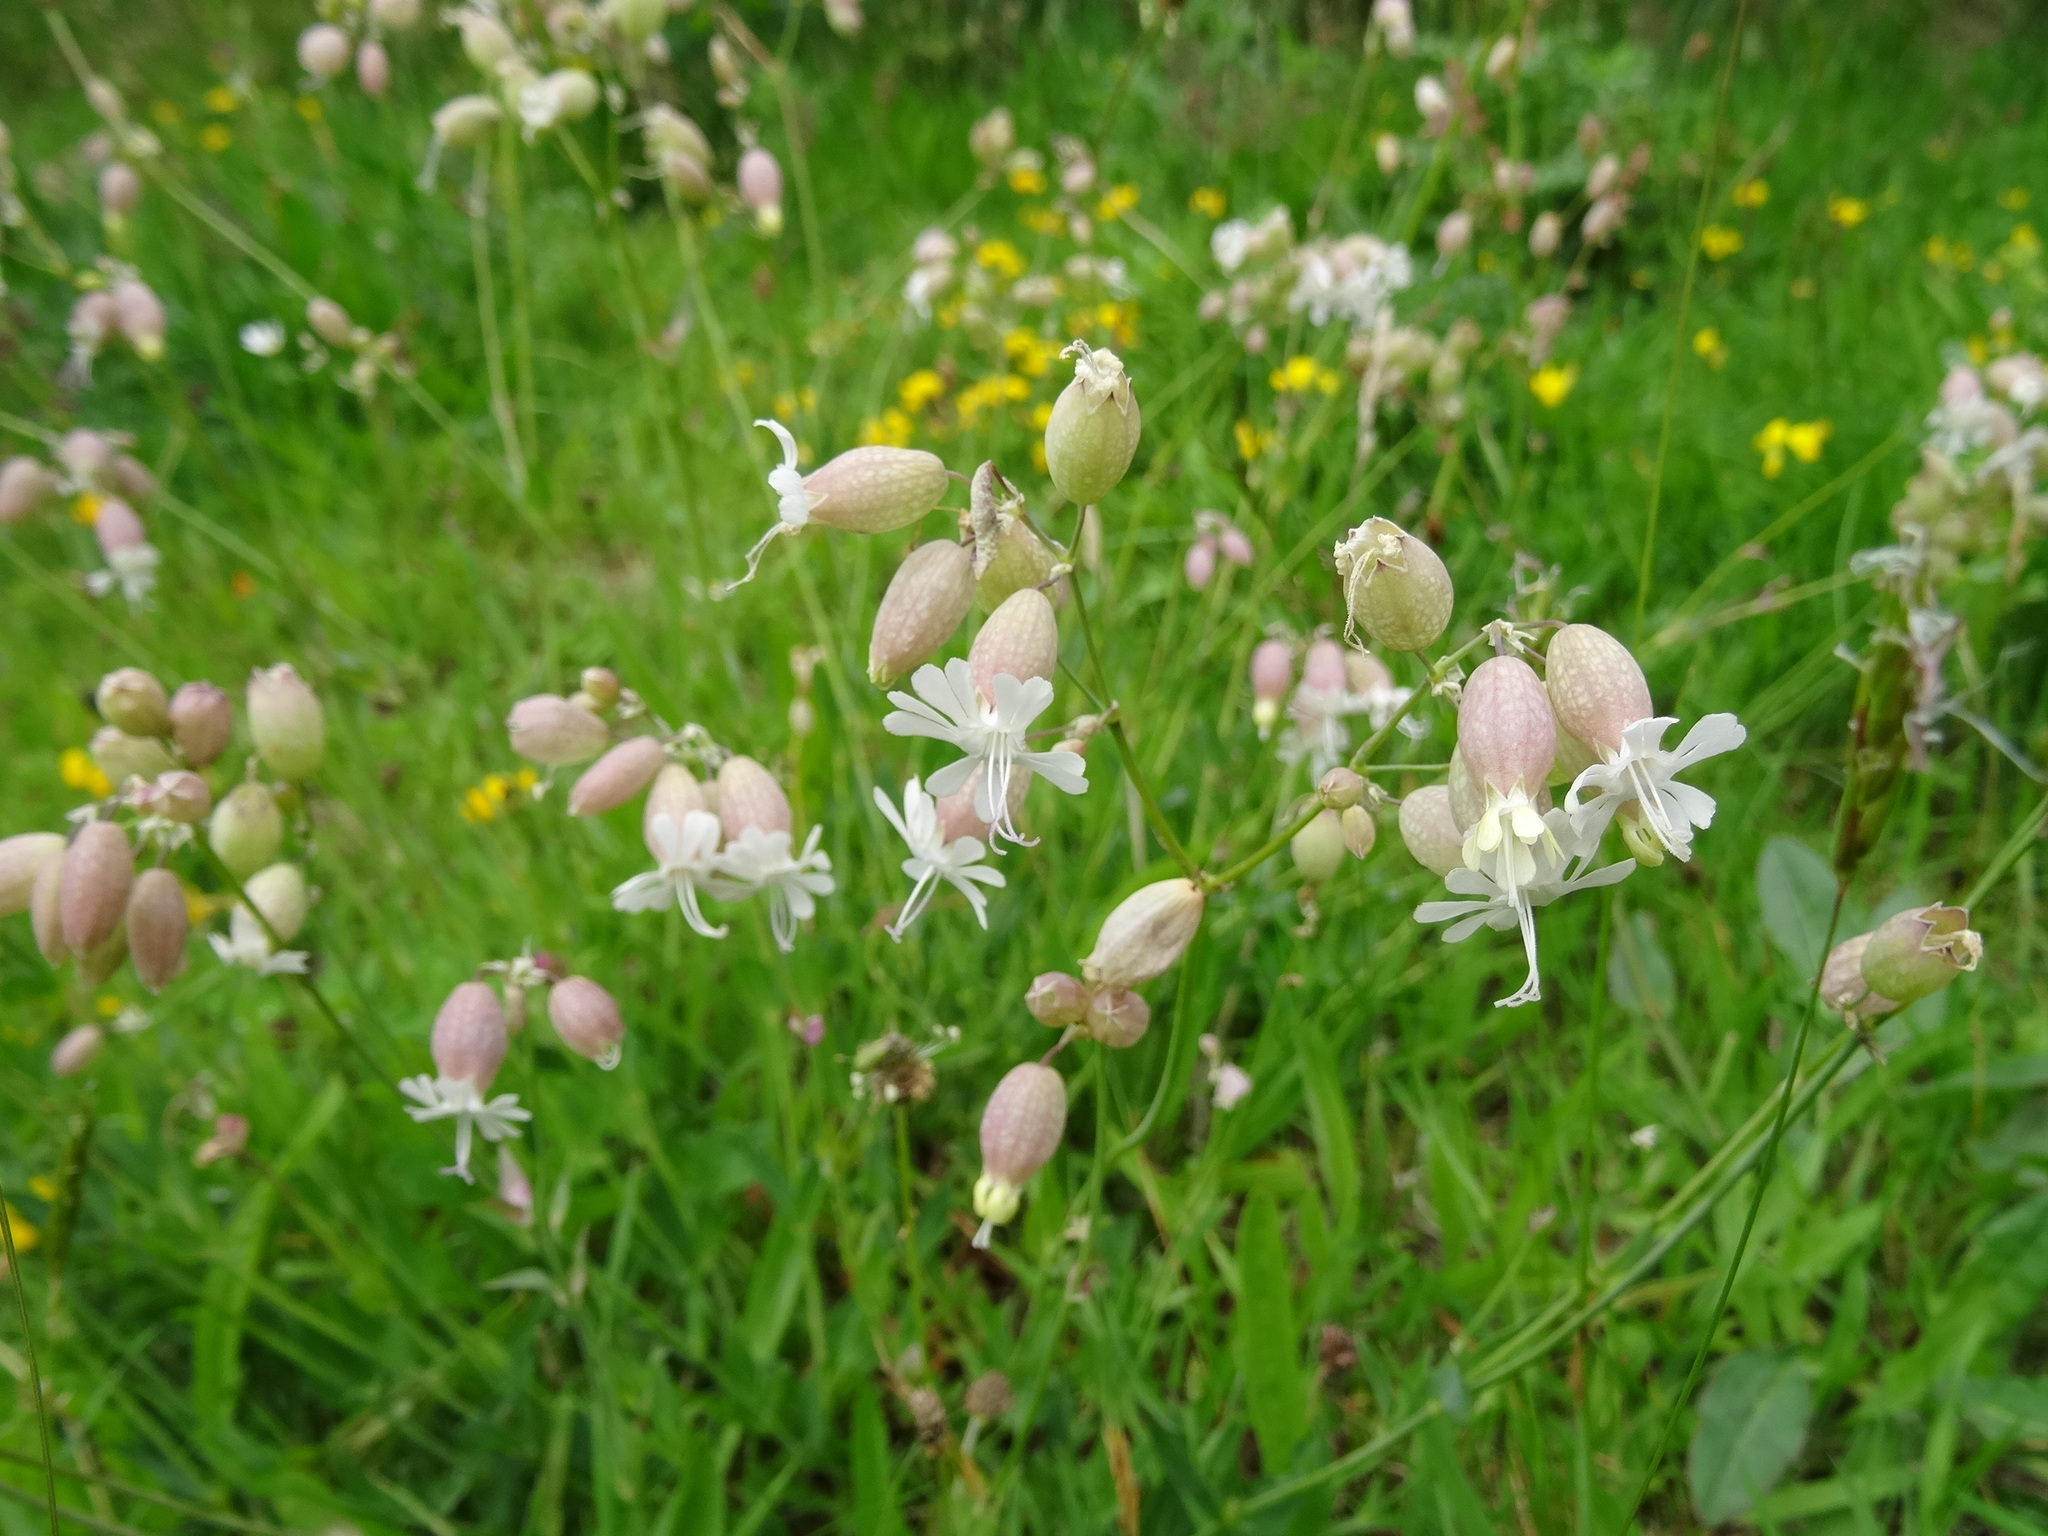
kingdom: Plantae
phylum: Tracheophyta
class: Magnoliopsida
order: Caryophyllales
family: Caryophyllaceae
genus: Silene
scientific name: Silene vulgaris
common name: Bladder campion
